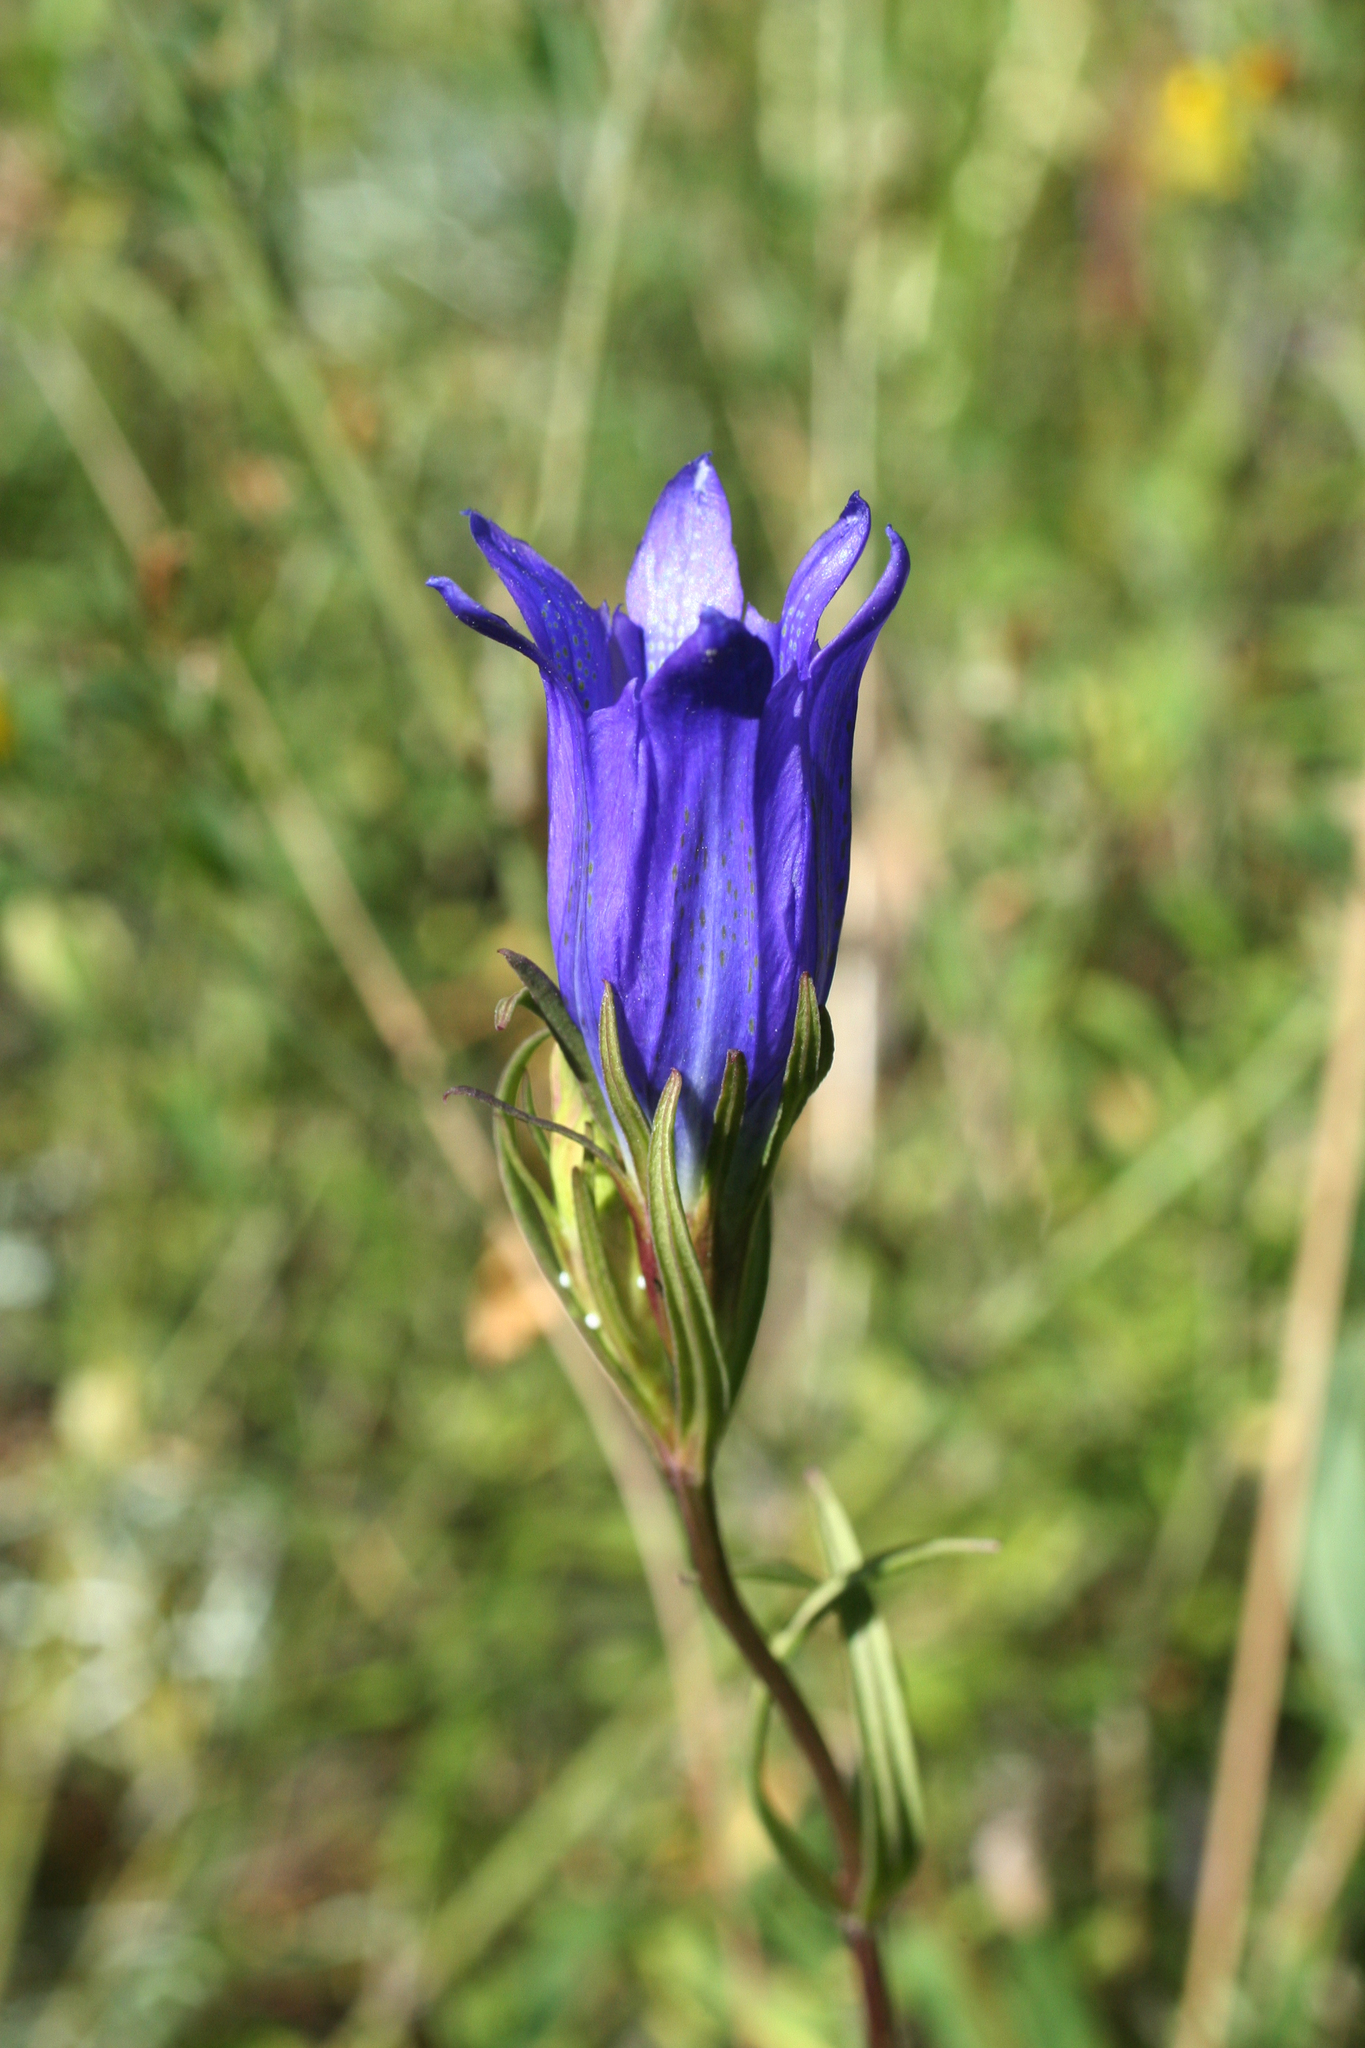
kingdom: Plantae
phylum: Tracheophyta
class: Magnoliopsida
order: Gentianales
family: Gentianaceae
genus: Gentiana
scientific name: Gentiana pneumonanthe
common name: Marsh gentian
